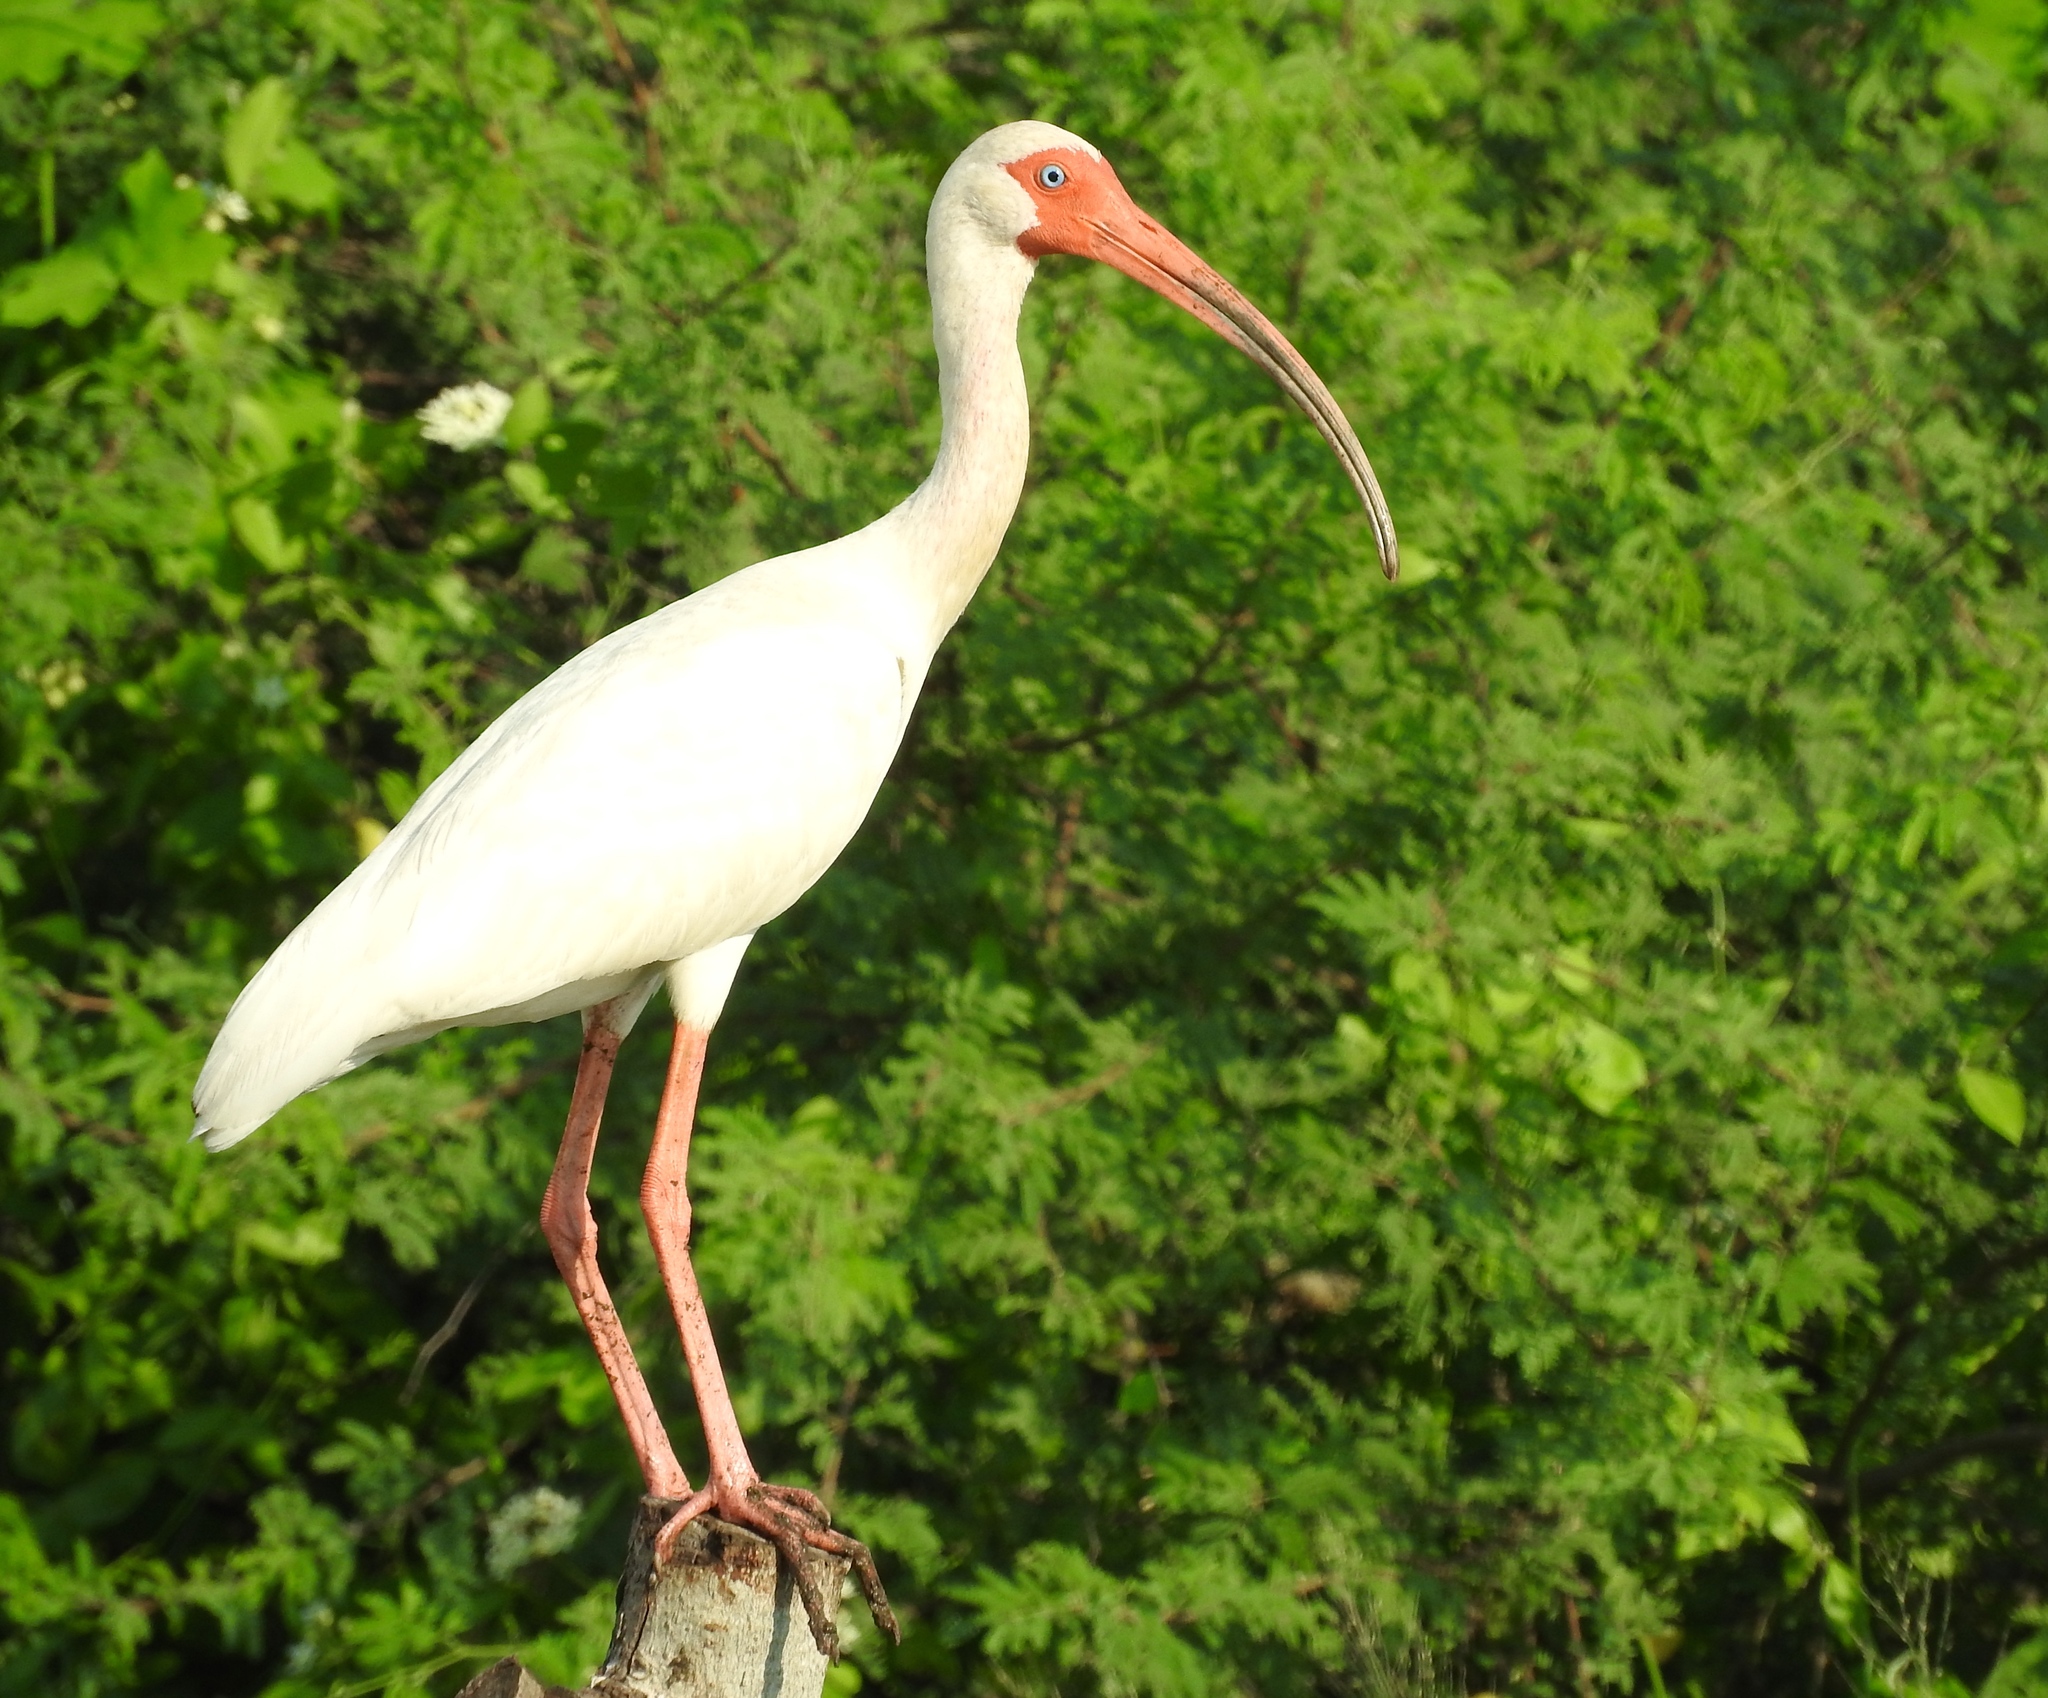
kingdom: Animalia
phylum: Chordata
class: Aves
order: Pelecaniformes
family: Threskiornithidae
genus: Eudocimus
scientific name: Eudocimus albus
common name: White ibis
